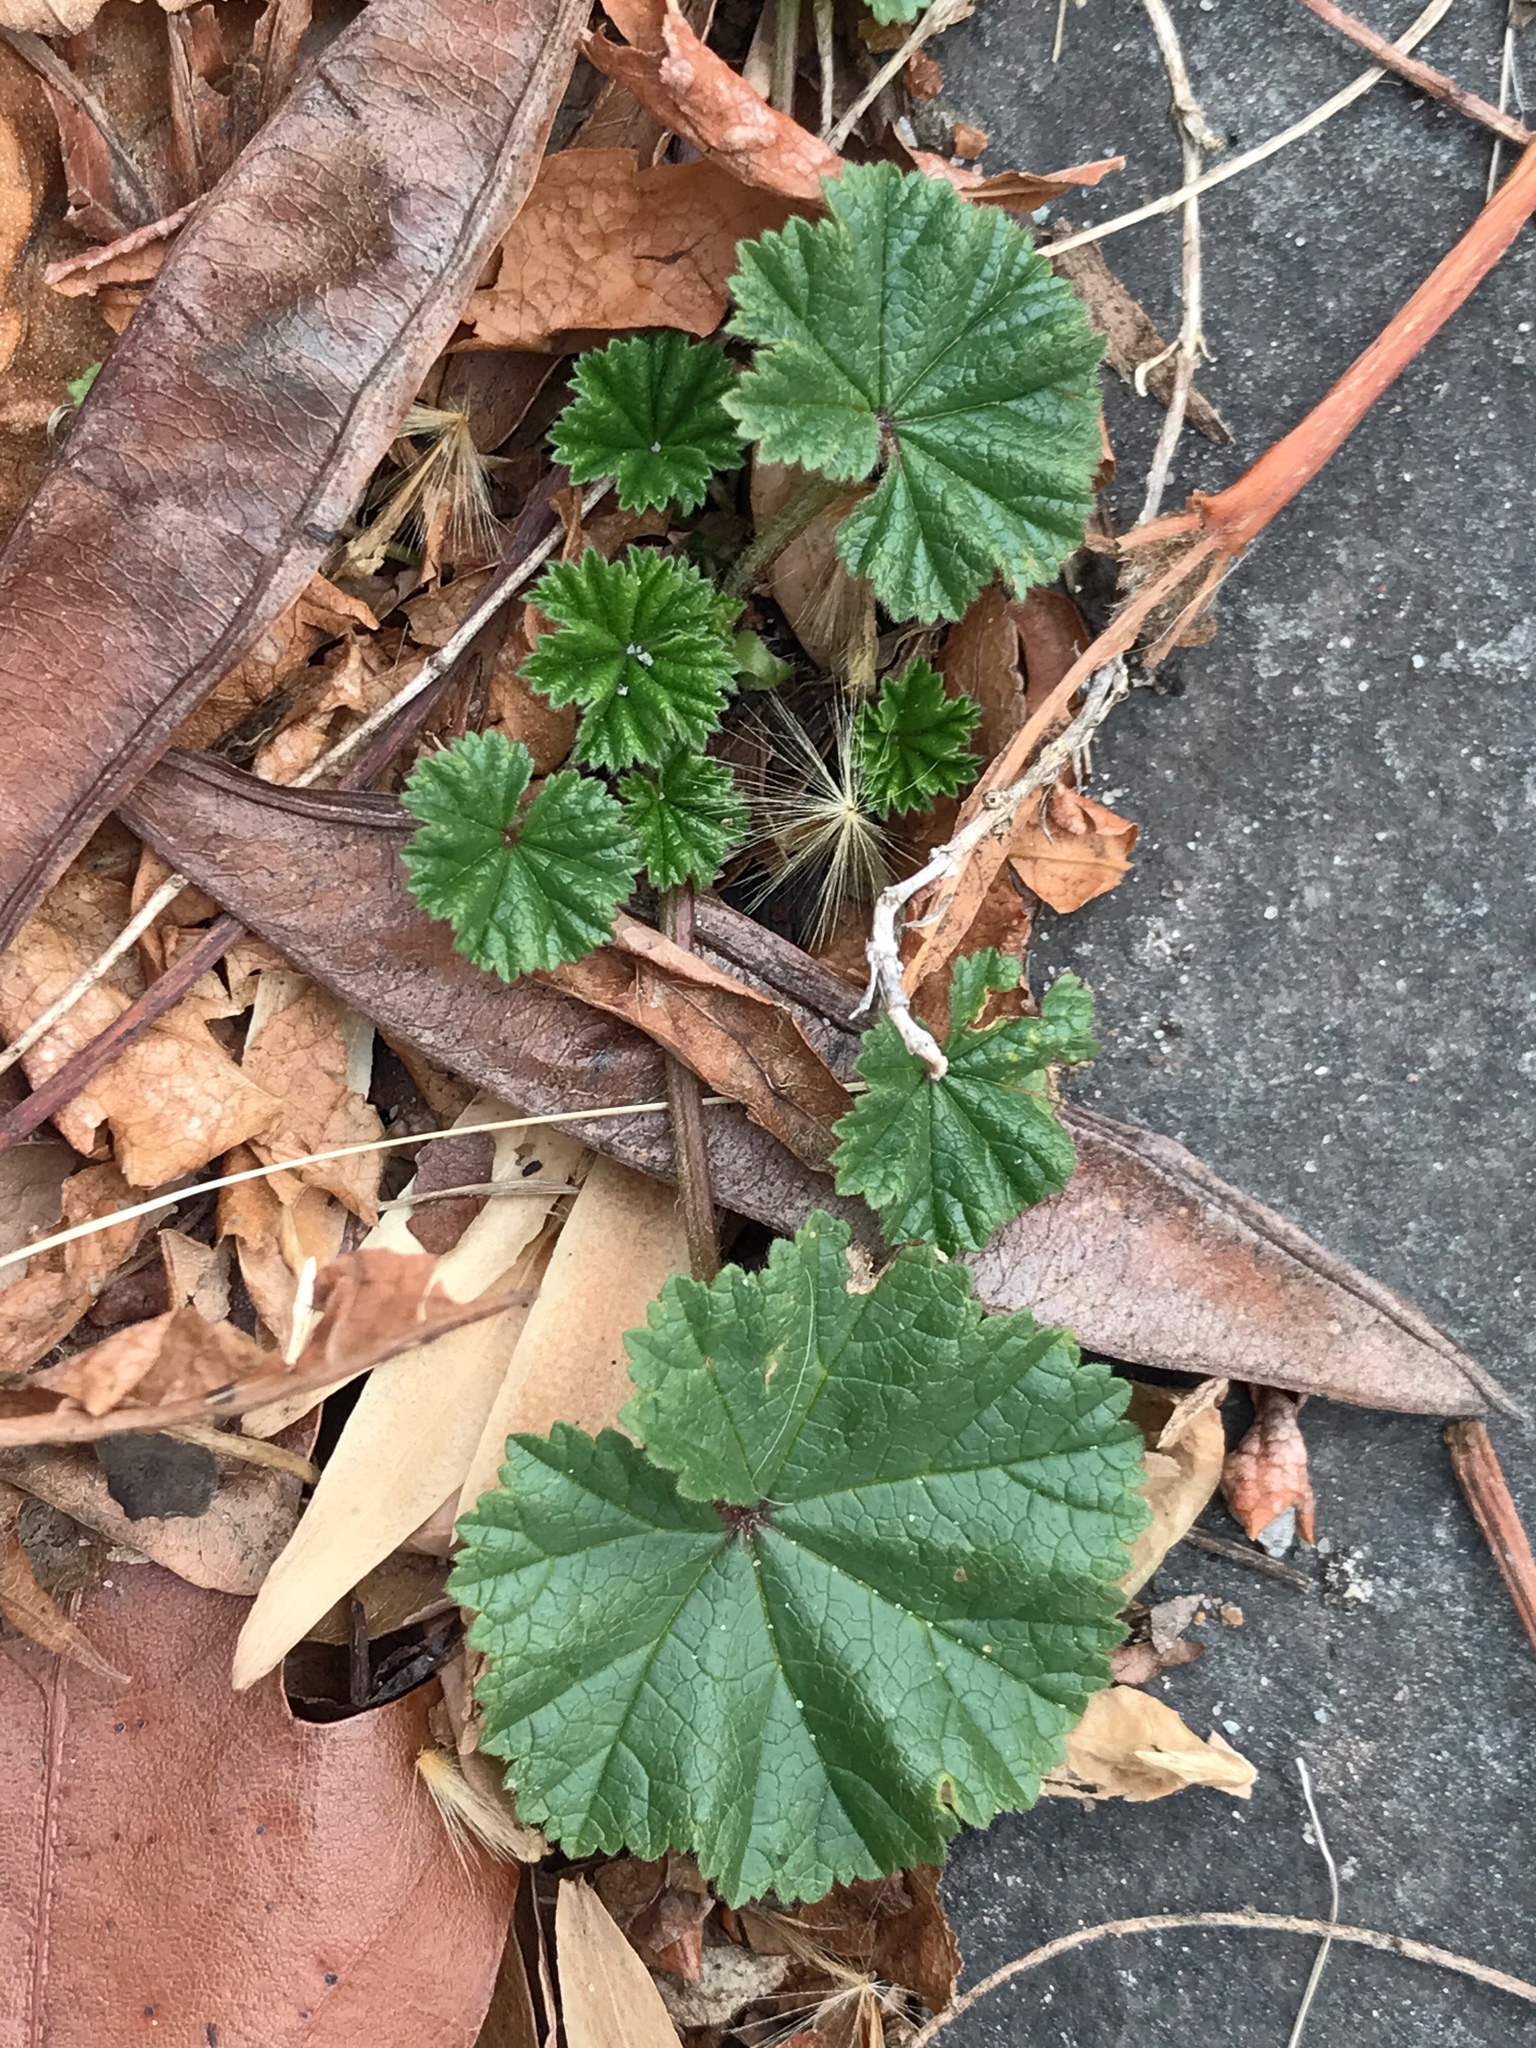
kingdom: Plantae
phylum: Tracheophyta
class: Magnoliopsida
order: Malvales
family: Malvaceae
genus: Malva
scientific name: Malva neglecta
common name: Common mallow
